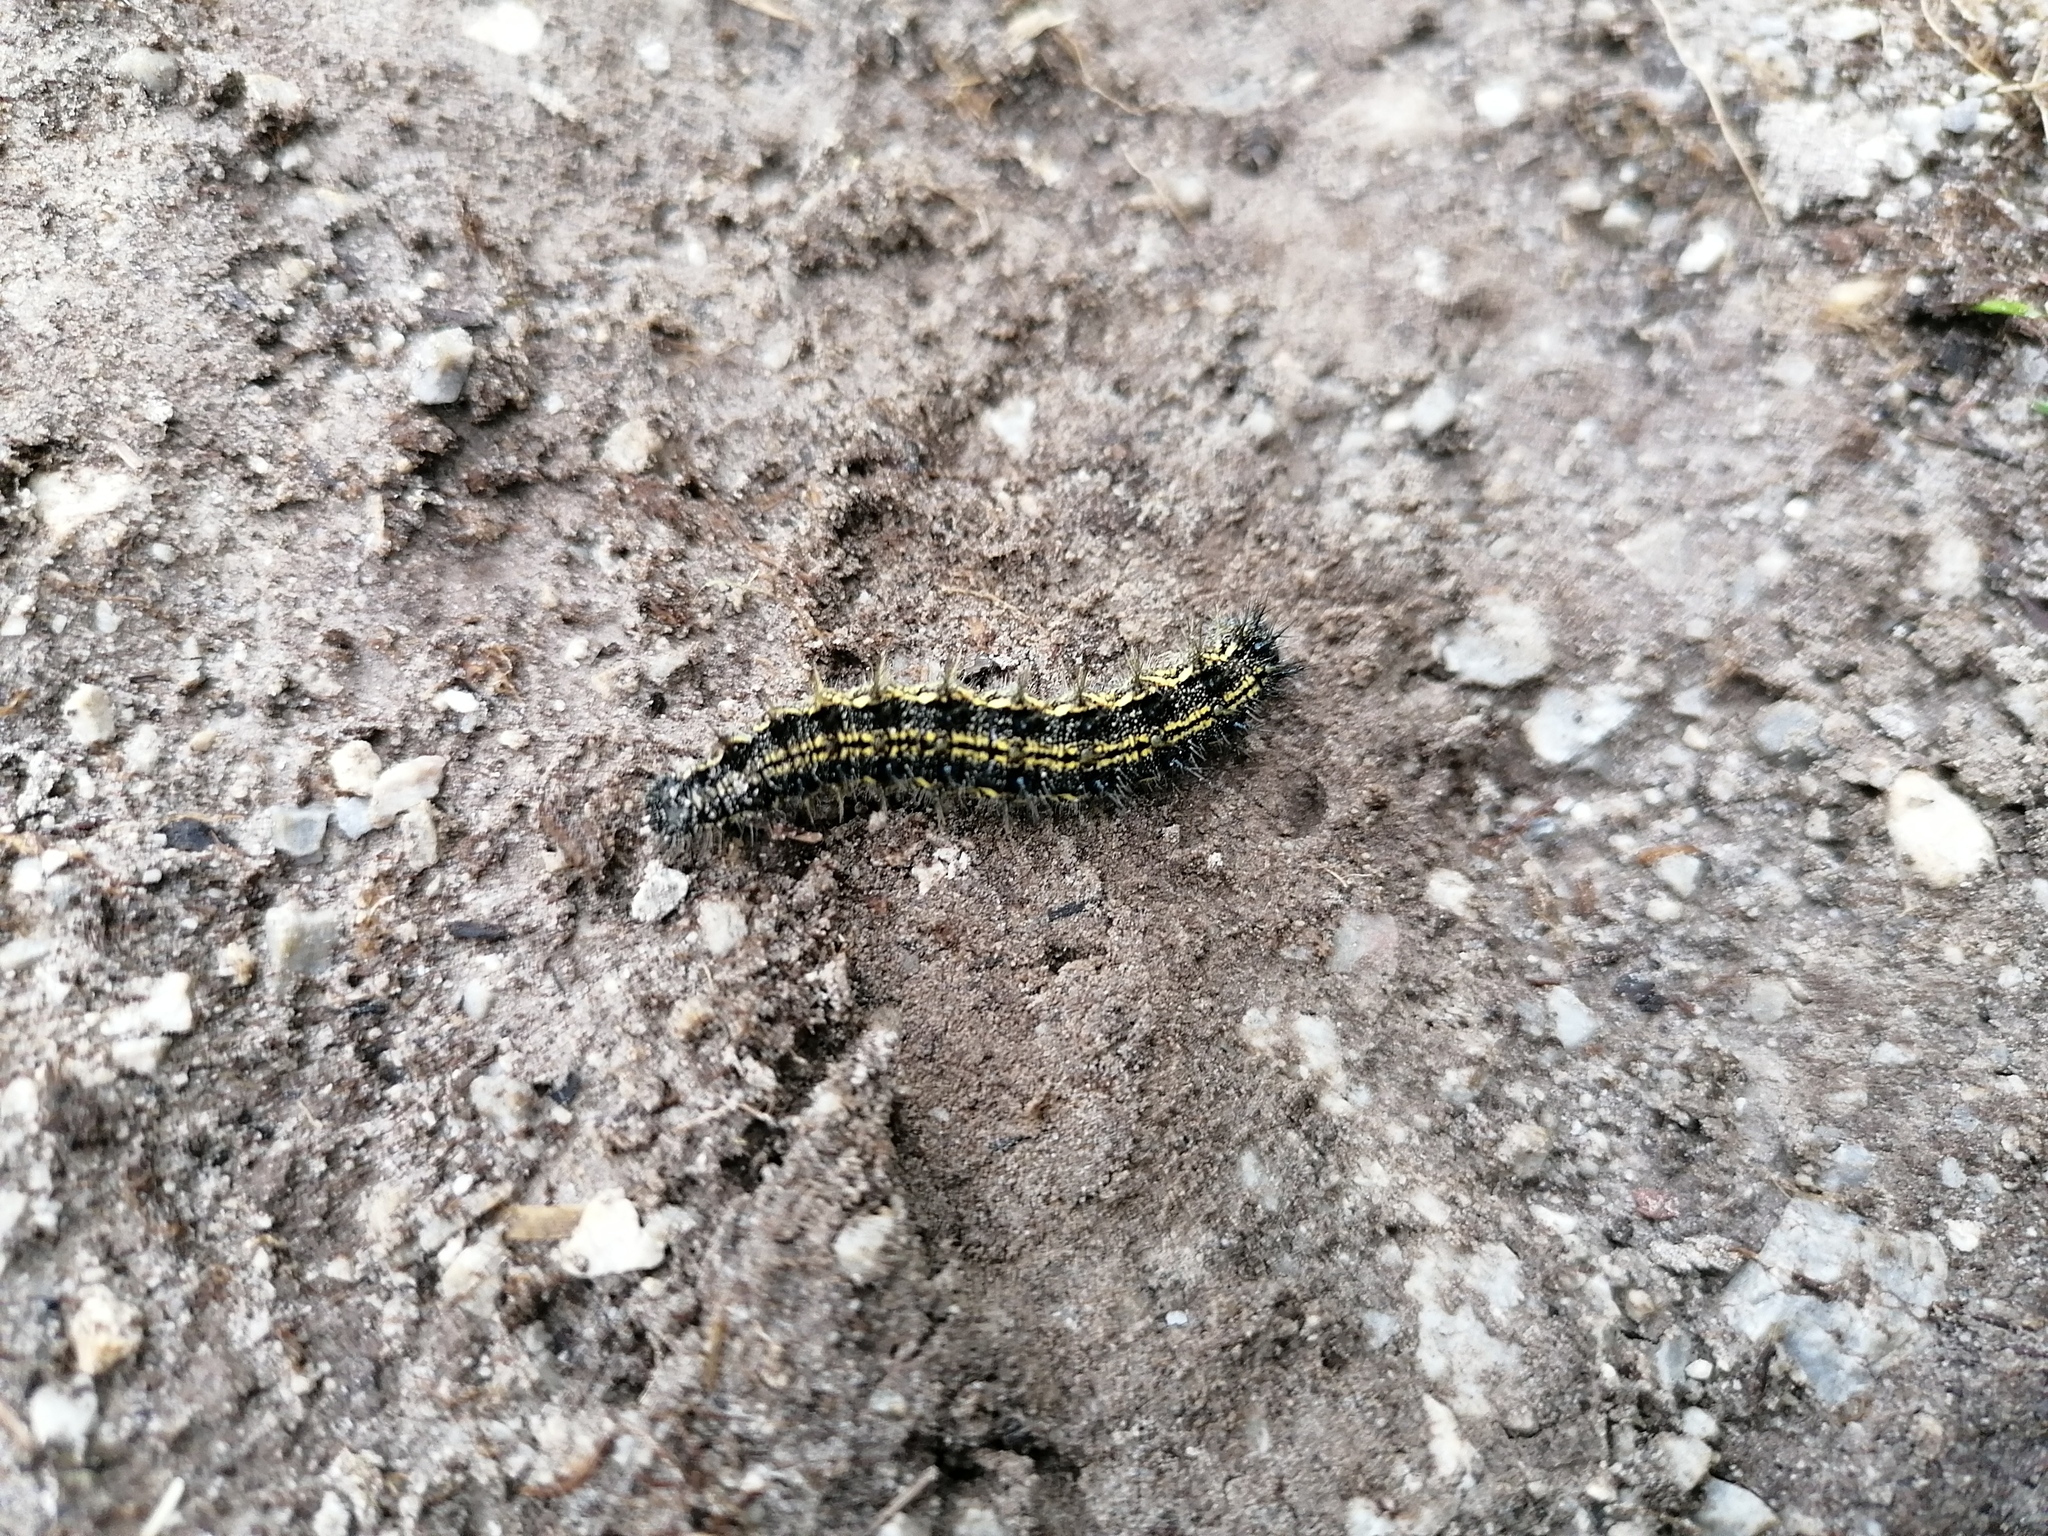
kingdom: Animalia
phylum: Arthropoda
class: Insecta
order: Lepidoptera
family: Nymphalidae
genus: Aglais
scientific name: Aglais urticae
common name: Small tortoiseshell
